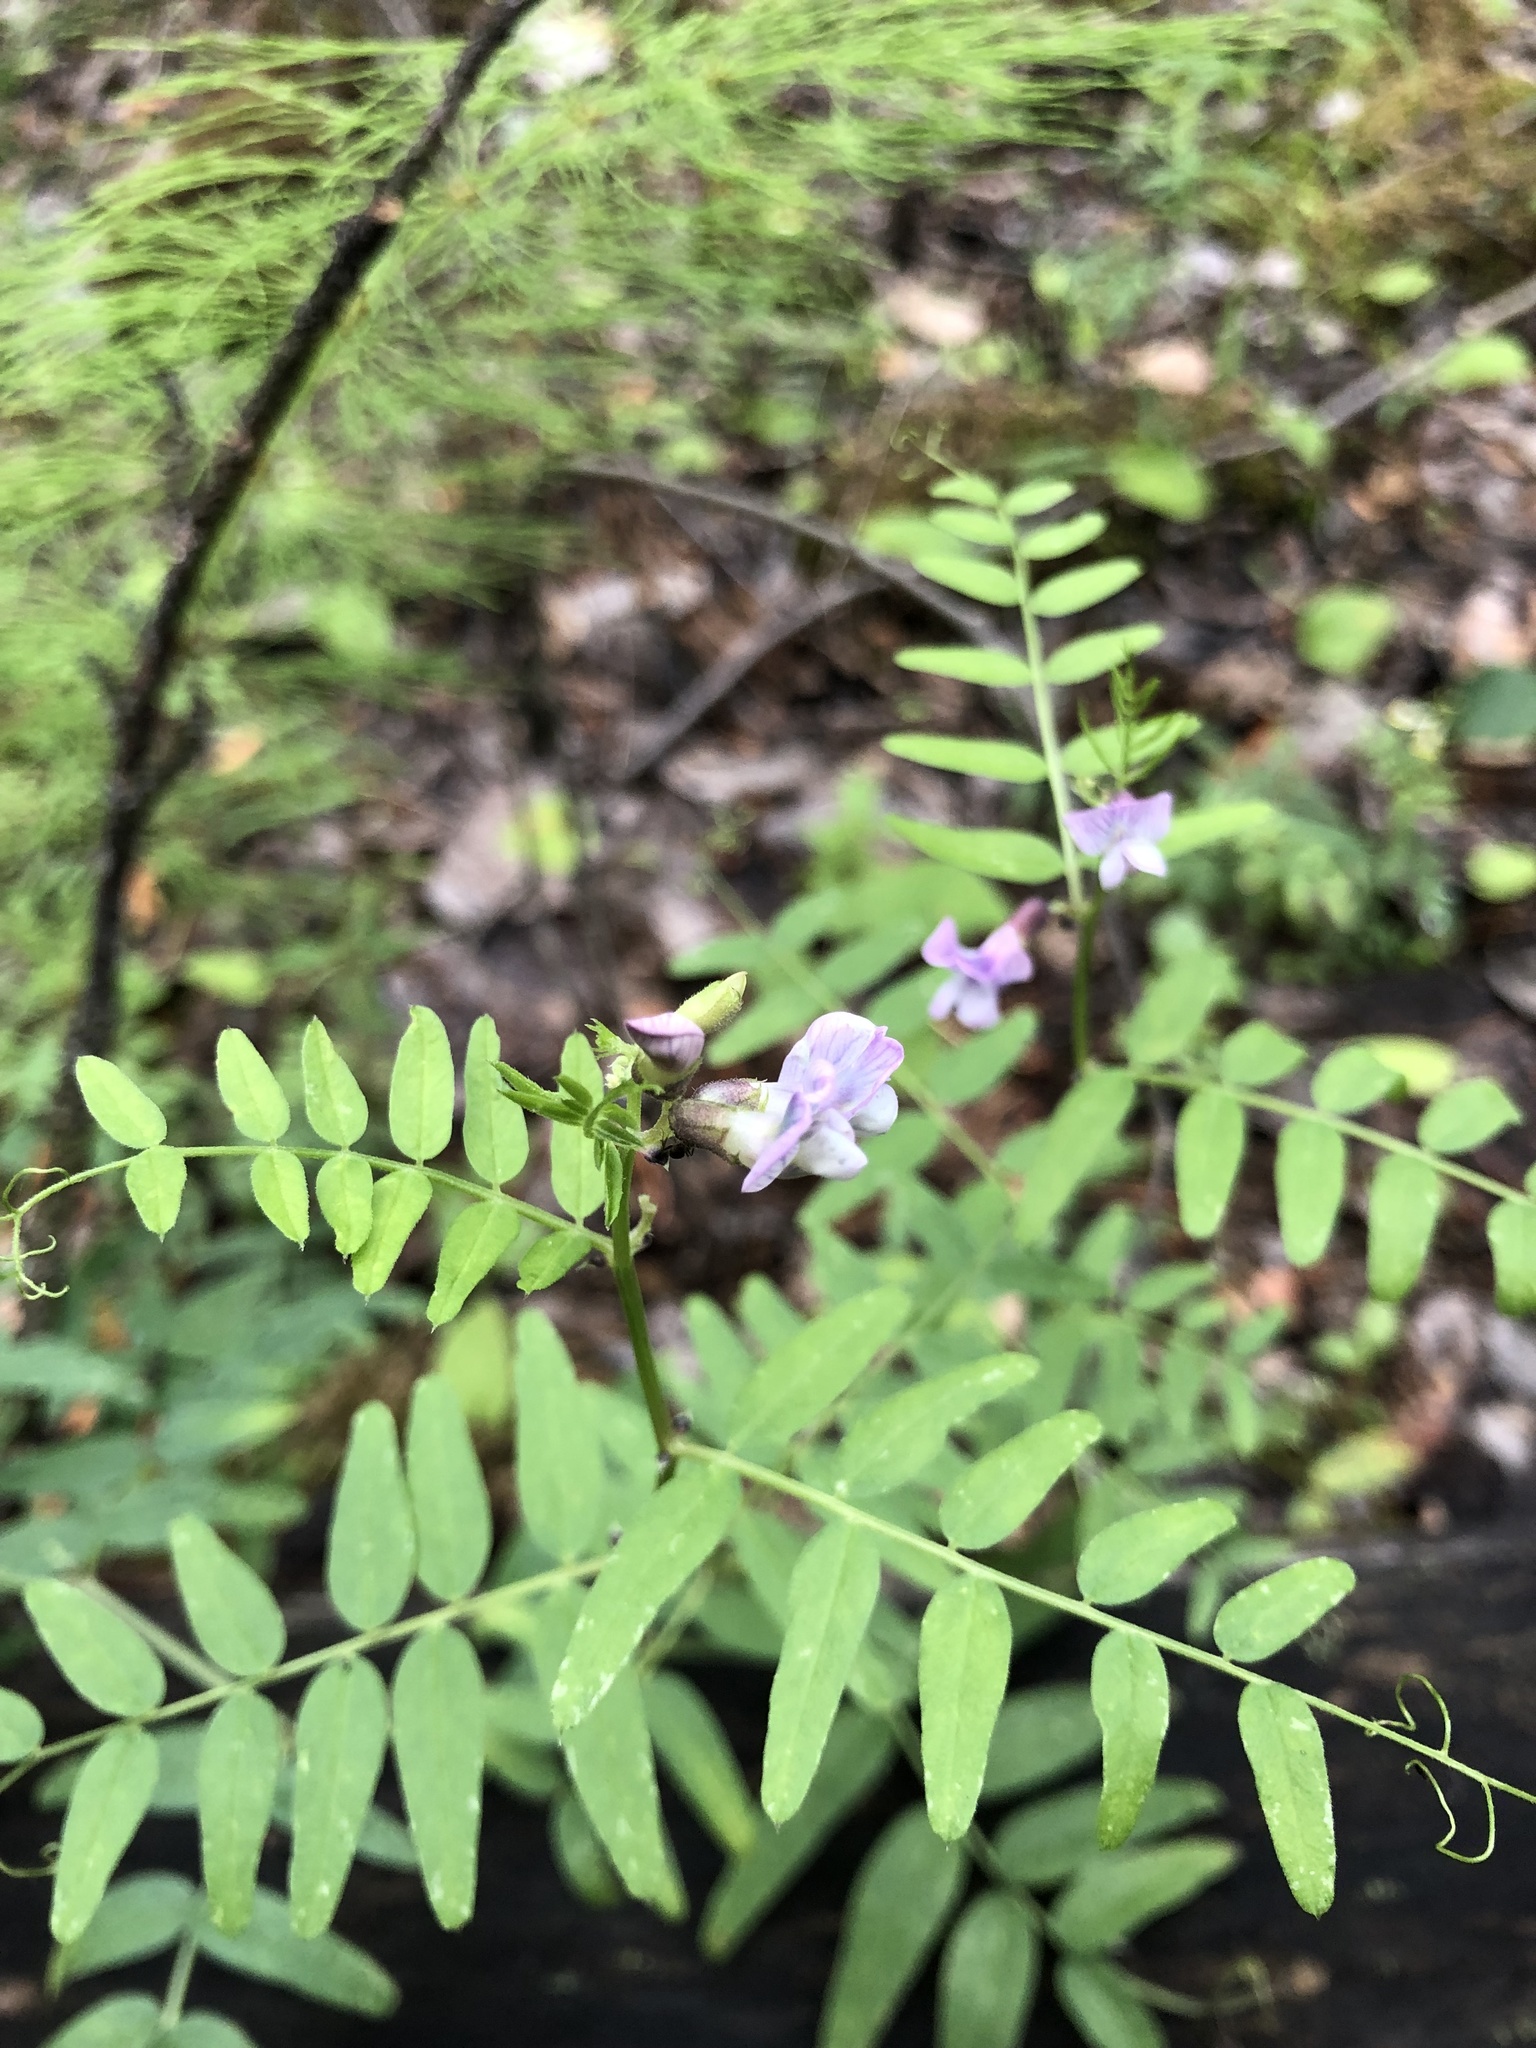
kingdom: Plantae
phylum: Tracheophyta
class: Magnoliopsida
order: Fabales
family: Fabaceae
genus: Vicia
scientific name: Vicia sepium
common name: Bush vetch
